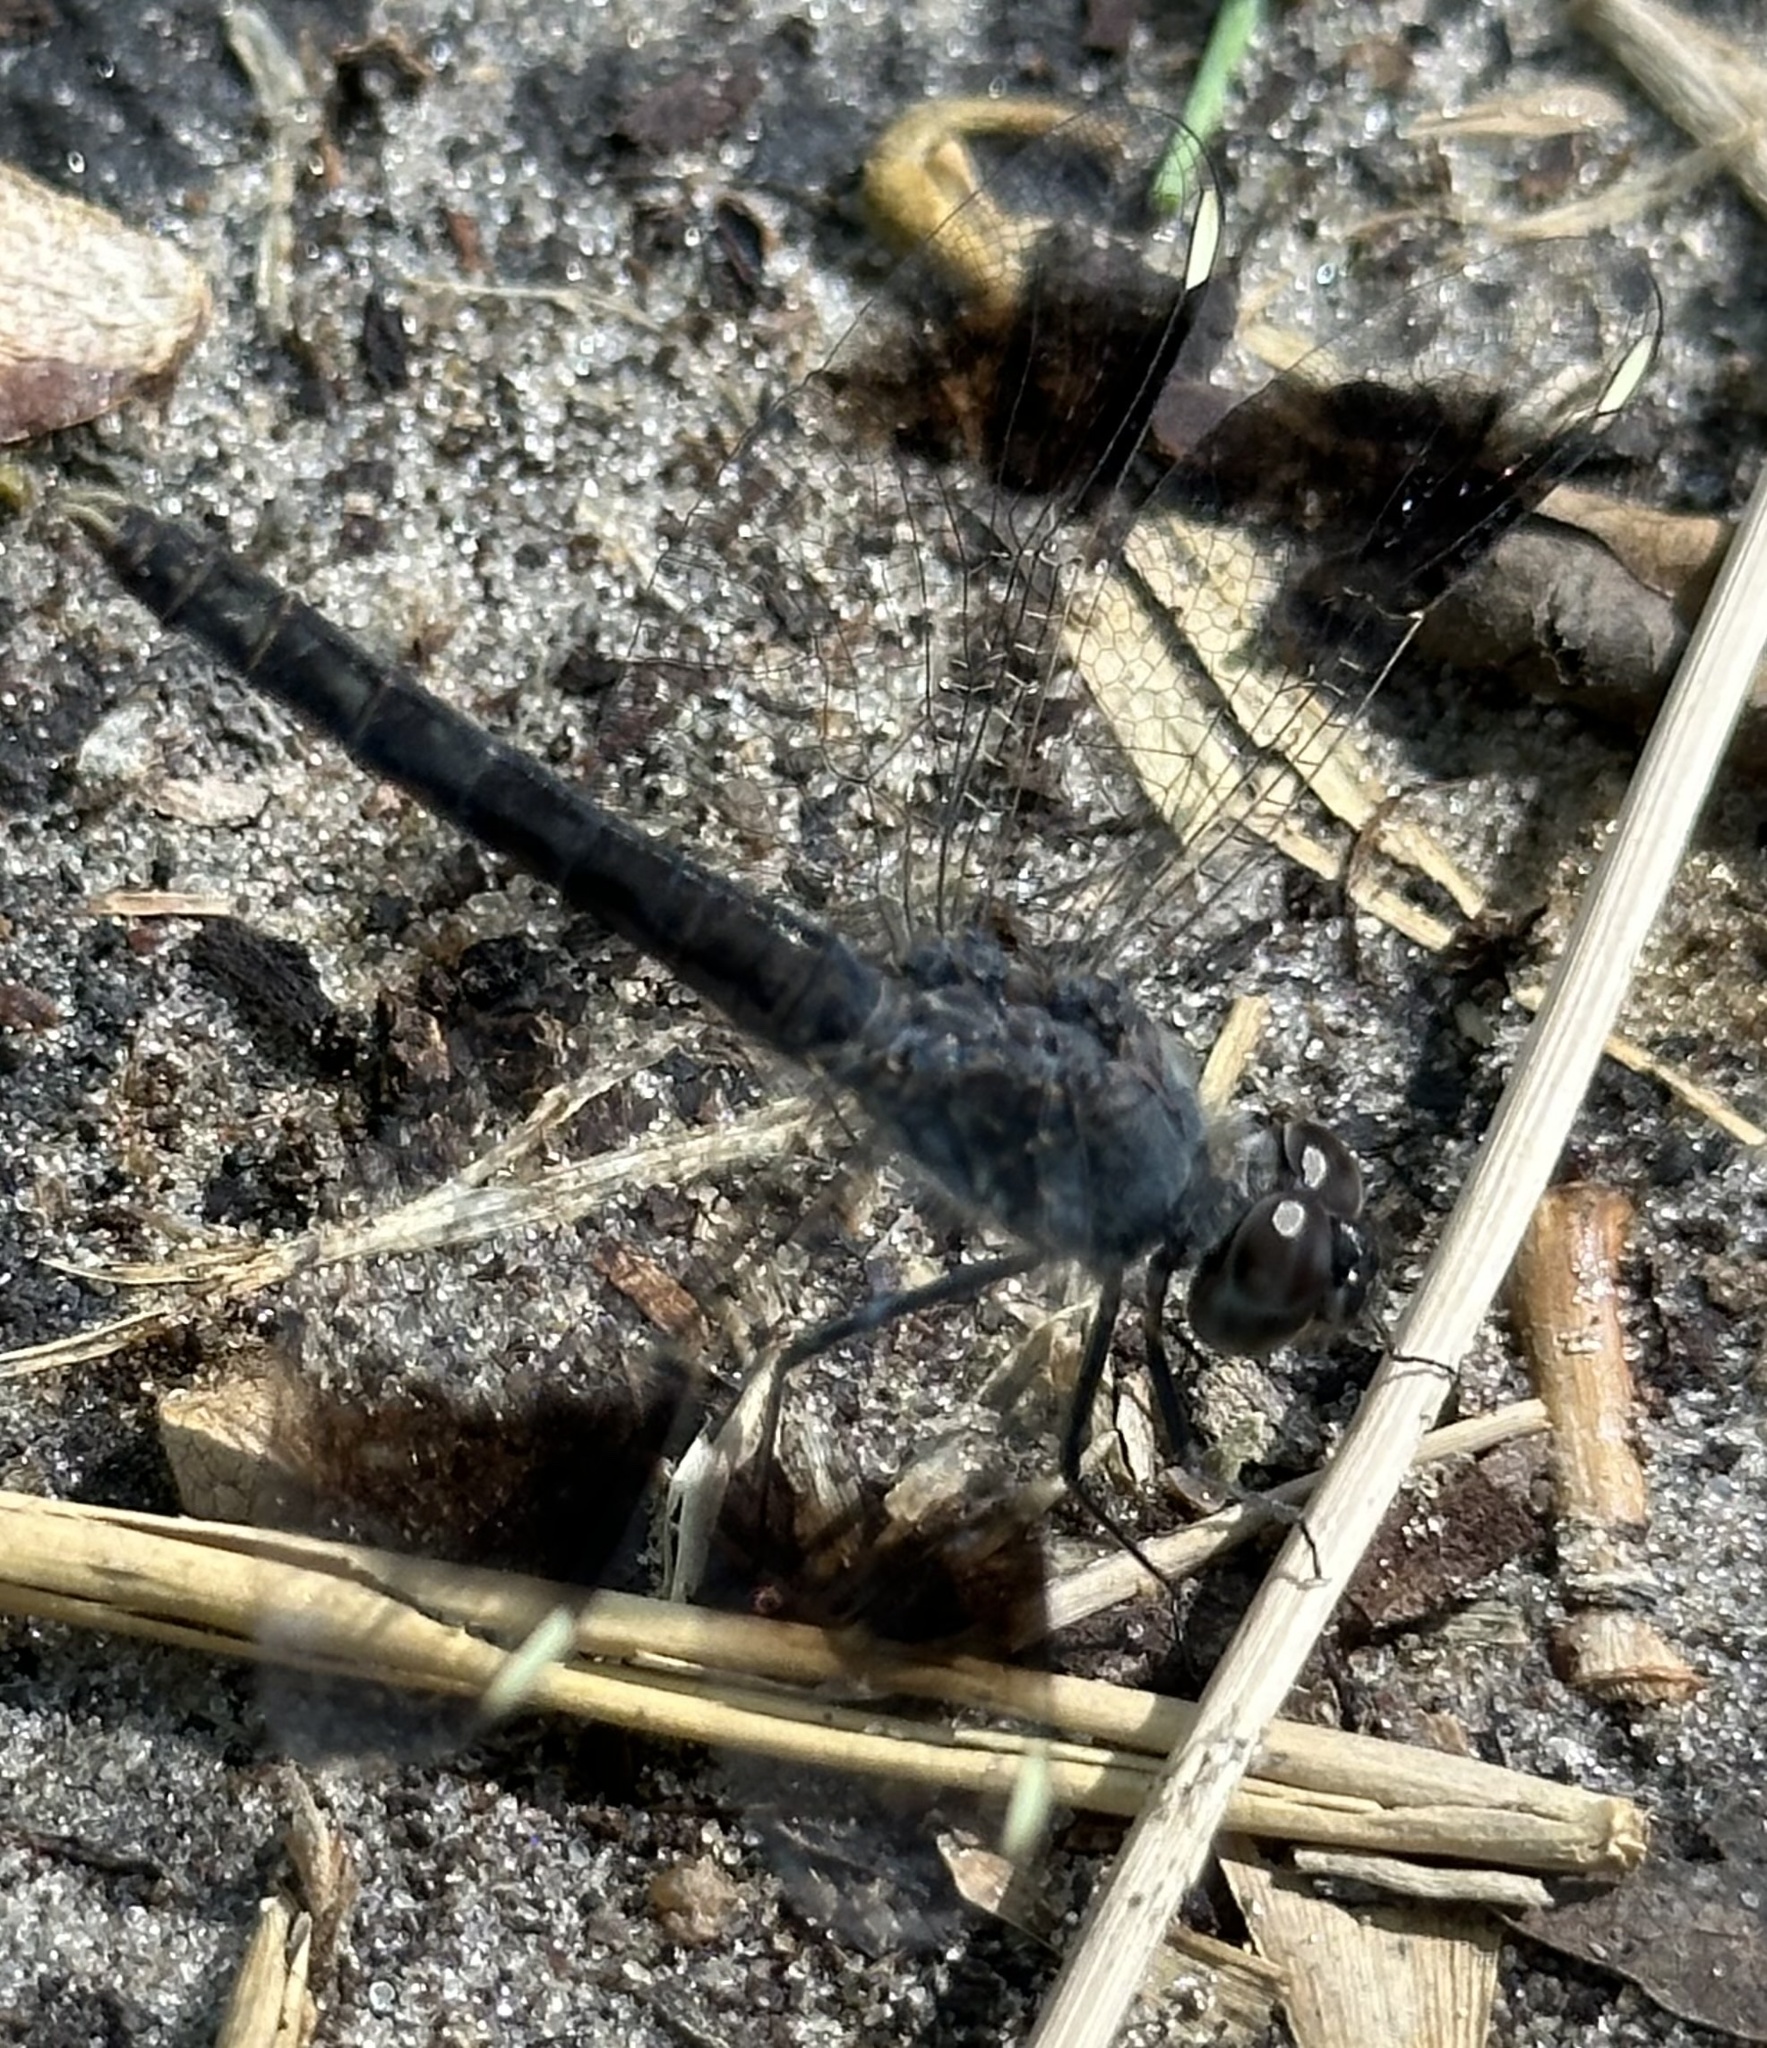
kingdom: Animalia
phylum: Arthropoda
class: Insecta
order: Odonata
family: Libellulidae
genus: Brachythemis
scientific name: Brachythemis leucosticta
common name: Banded groundling
